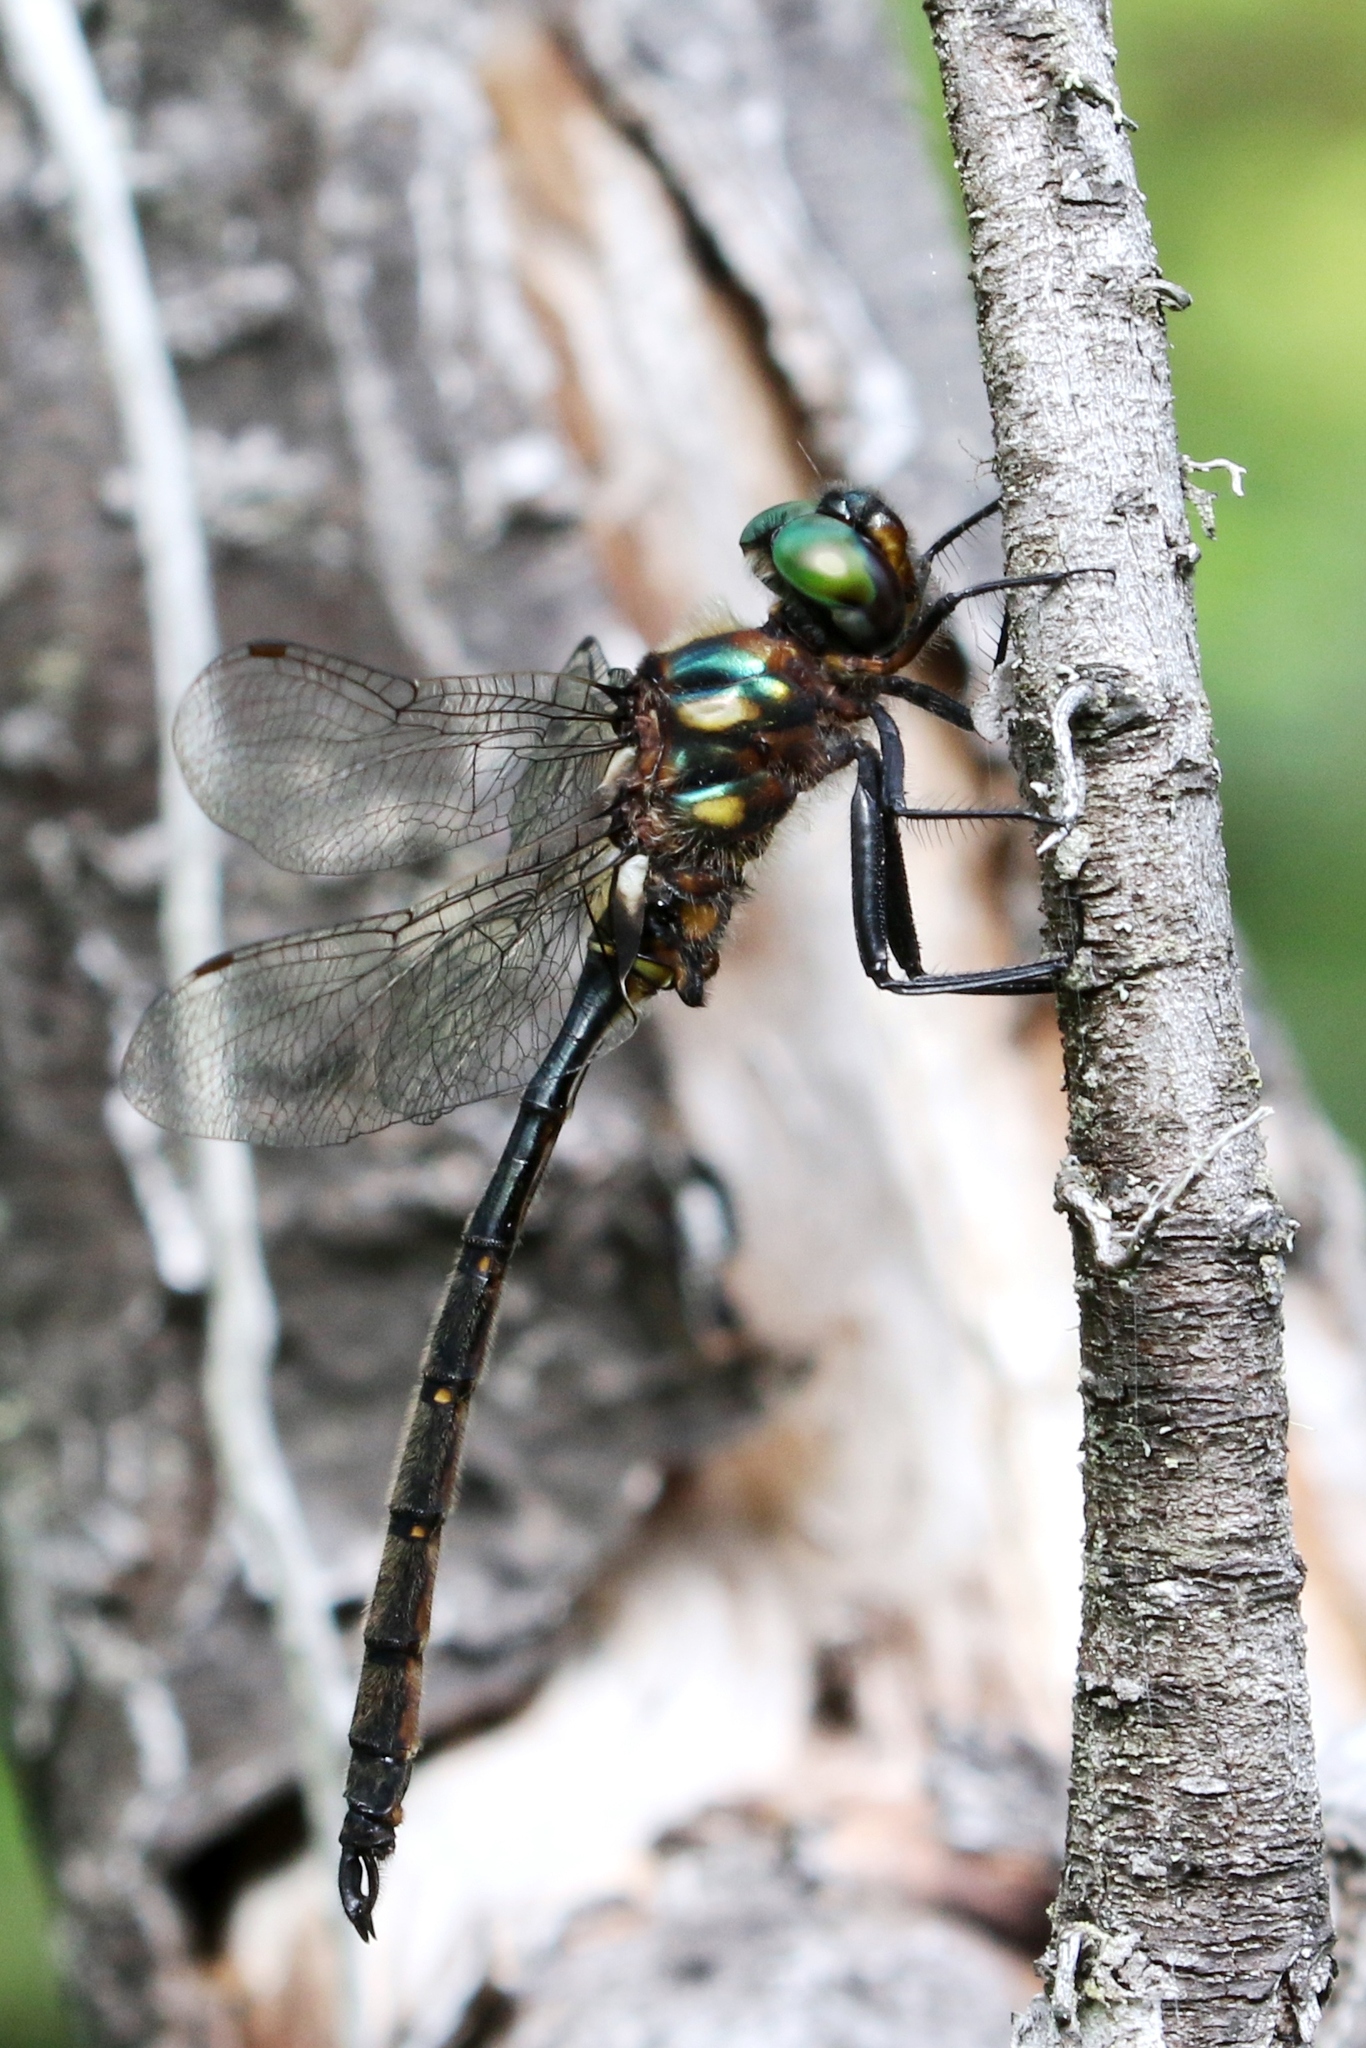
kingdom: Animalia
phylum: Arthropoda
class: Insecta
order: Odonata
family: Corduliidae
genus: Somatochlora
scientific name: Somatochlora forcipata
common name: Forcipate emerald
